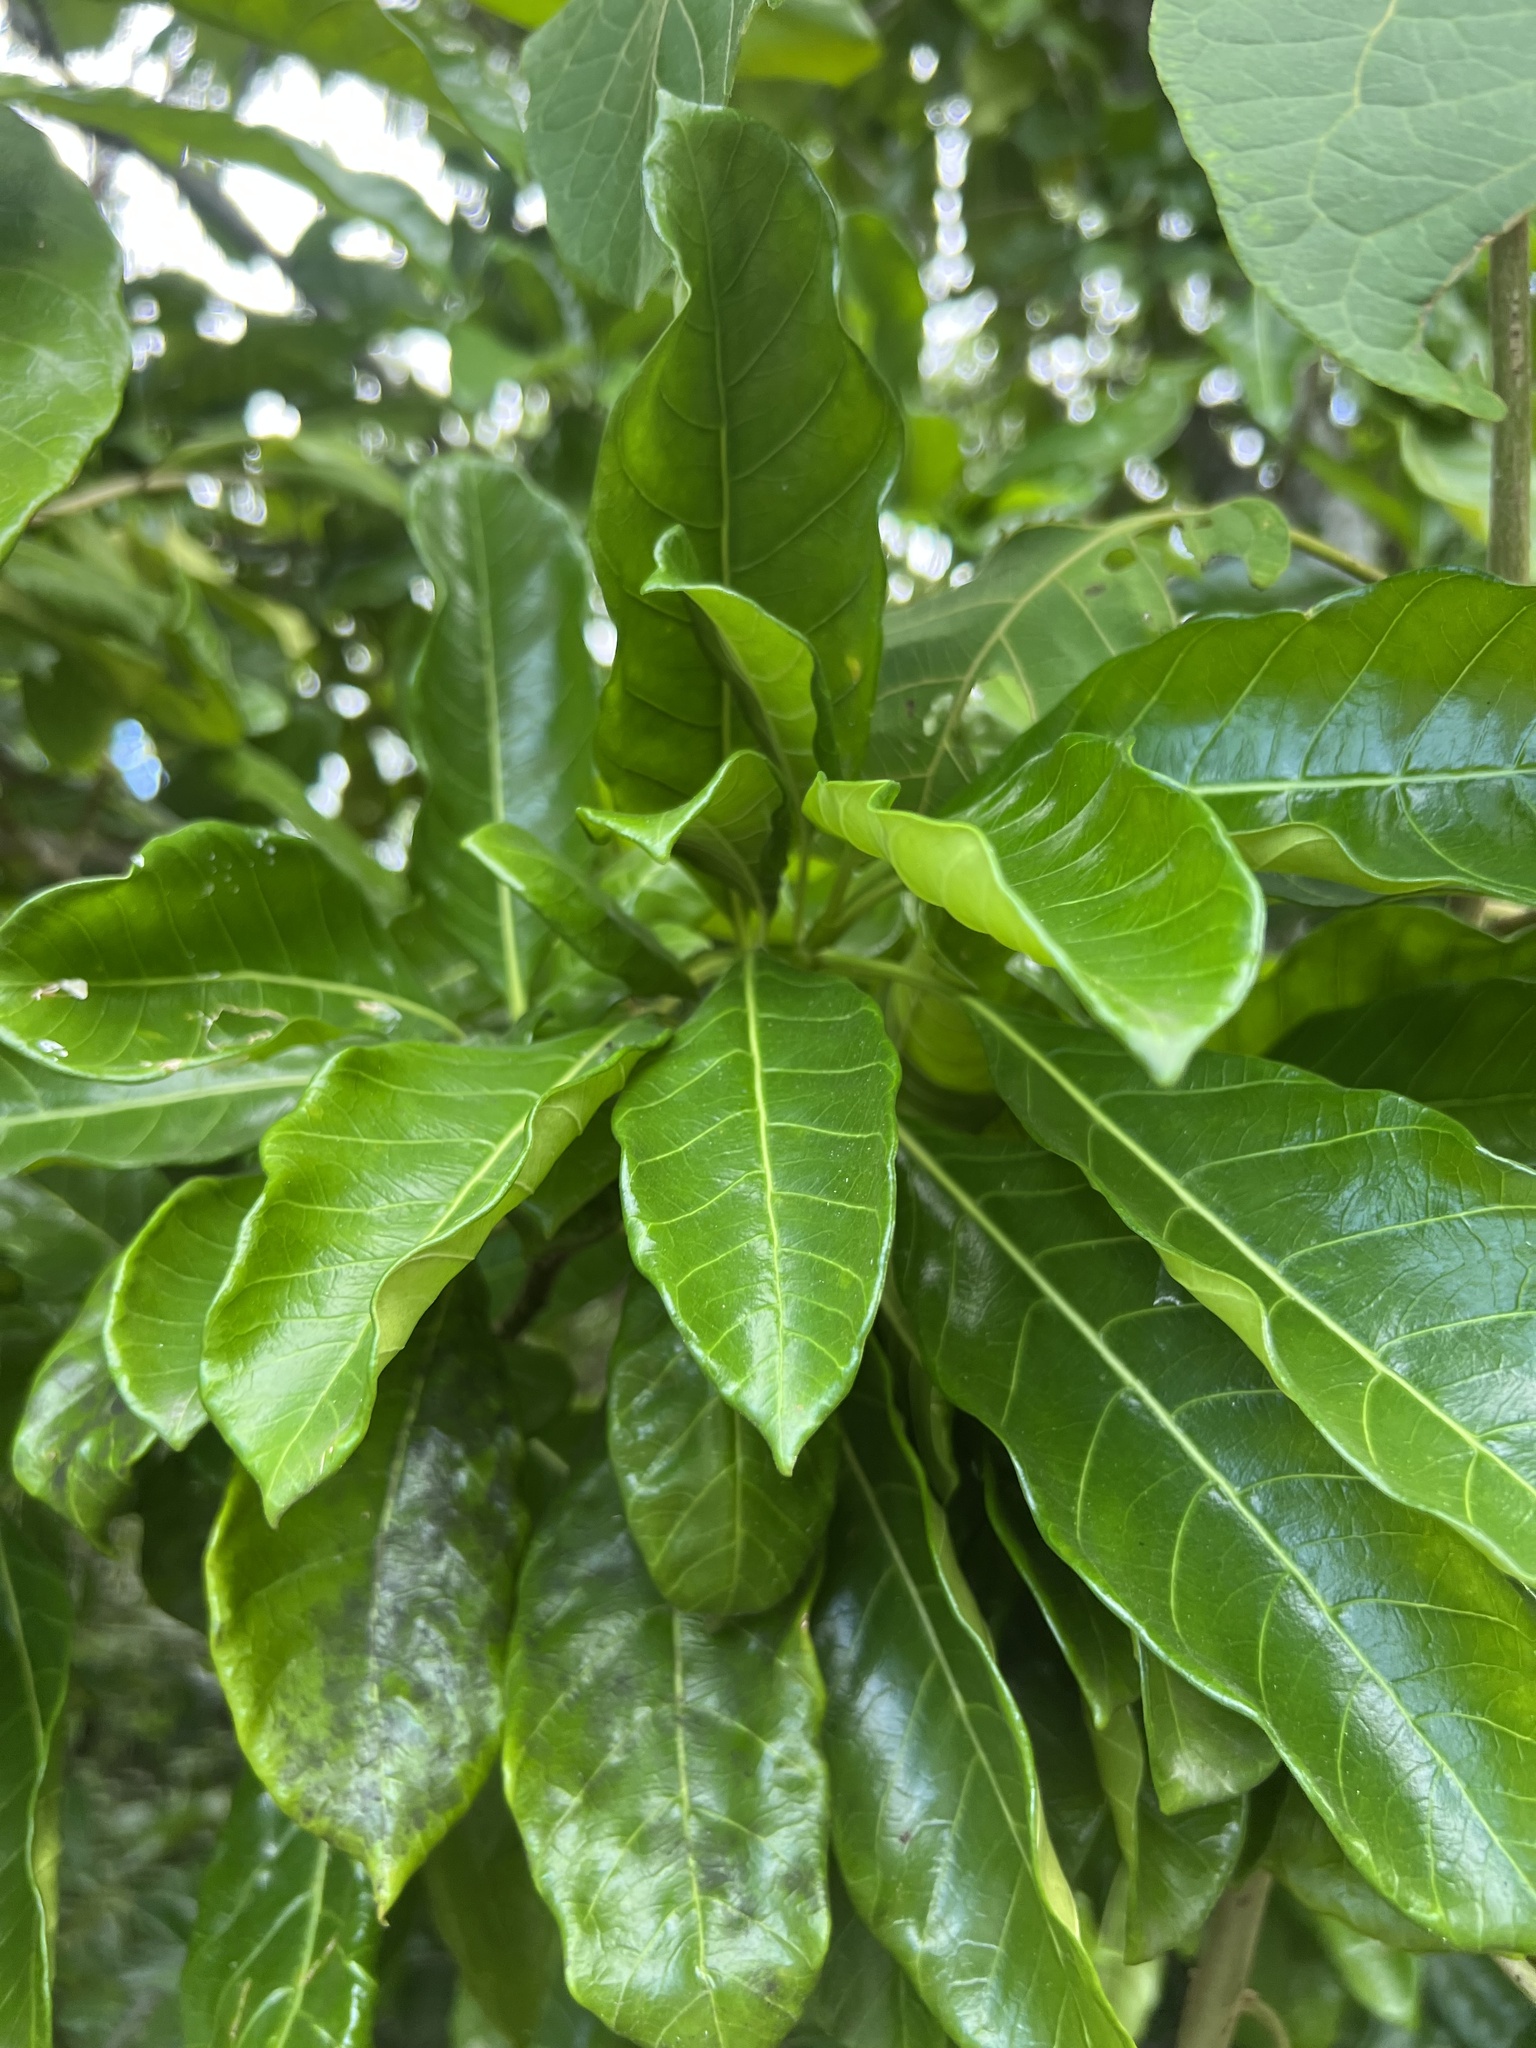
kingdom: Plantae
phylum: Tracheophyta
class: Magnoliopsida
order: Gentianales
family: Apocynaceae
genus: Tabernaemontana
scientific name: Tabernaemontana laurifolia
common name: Slingshot
